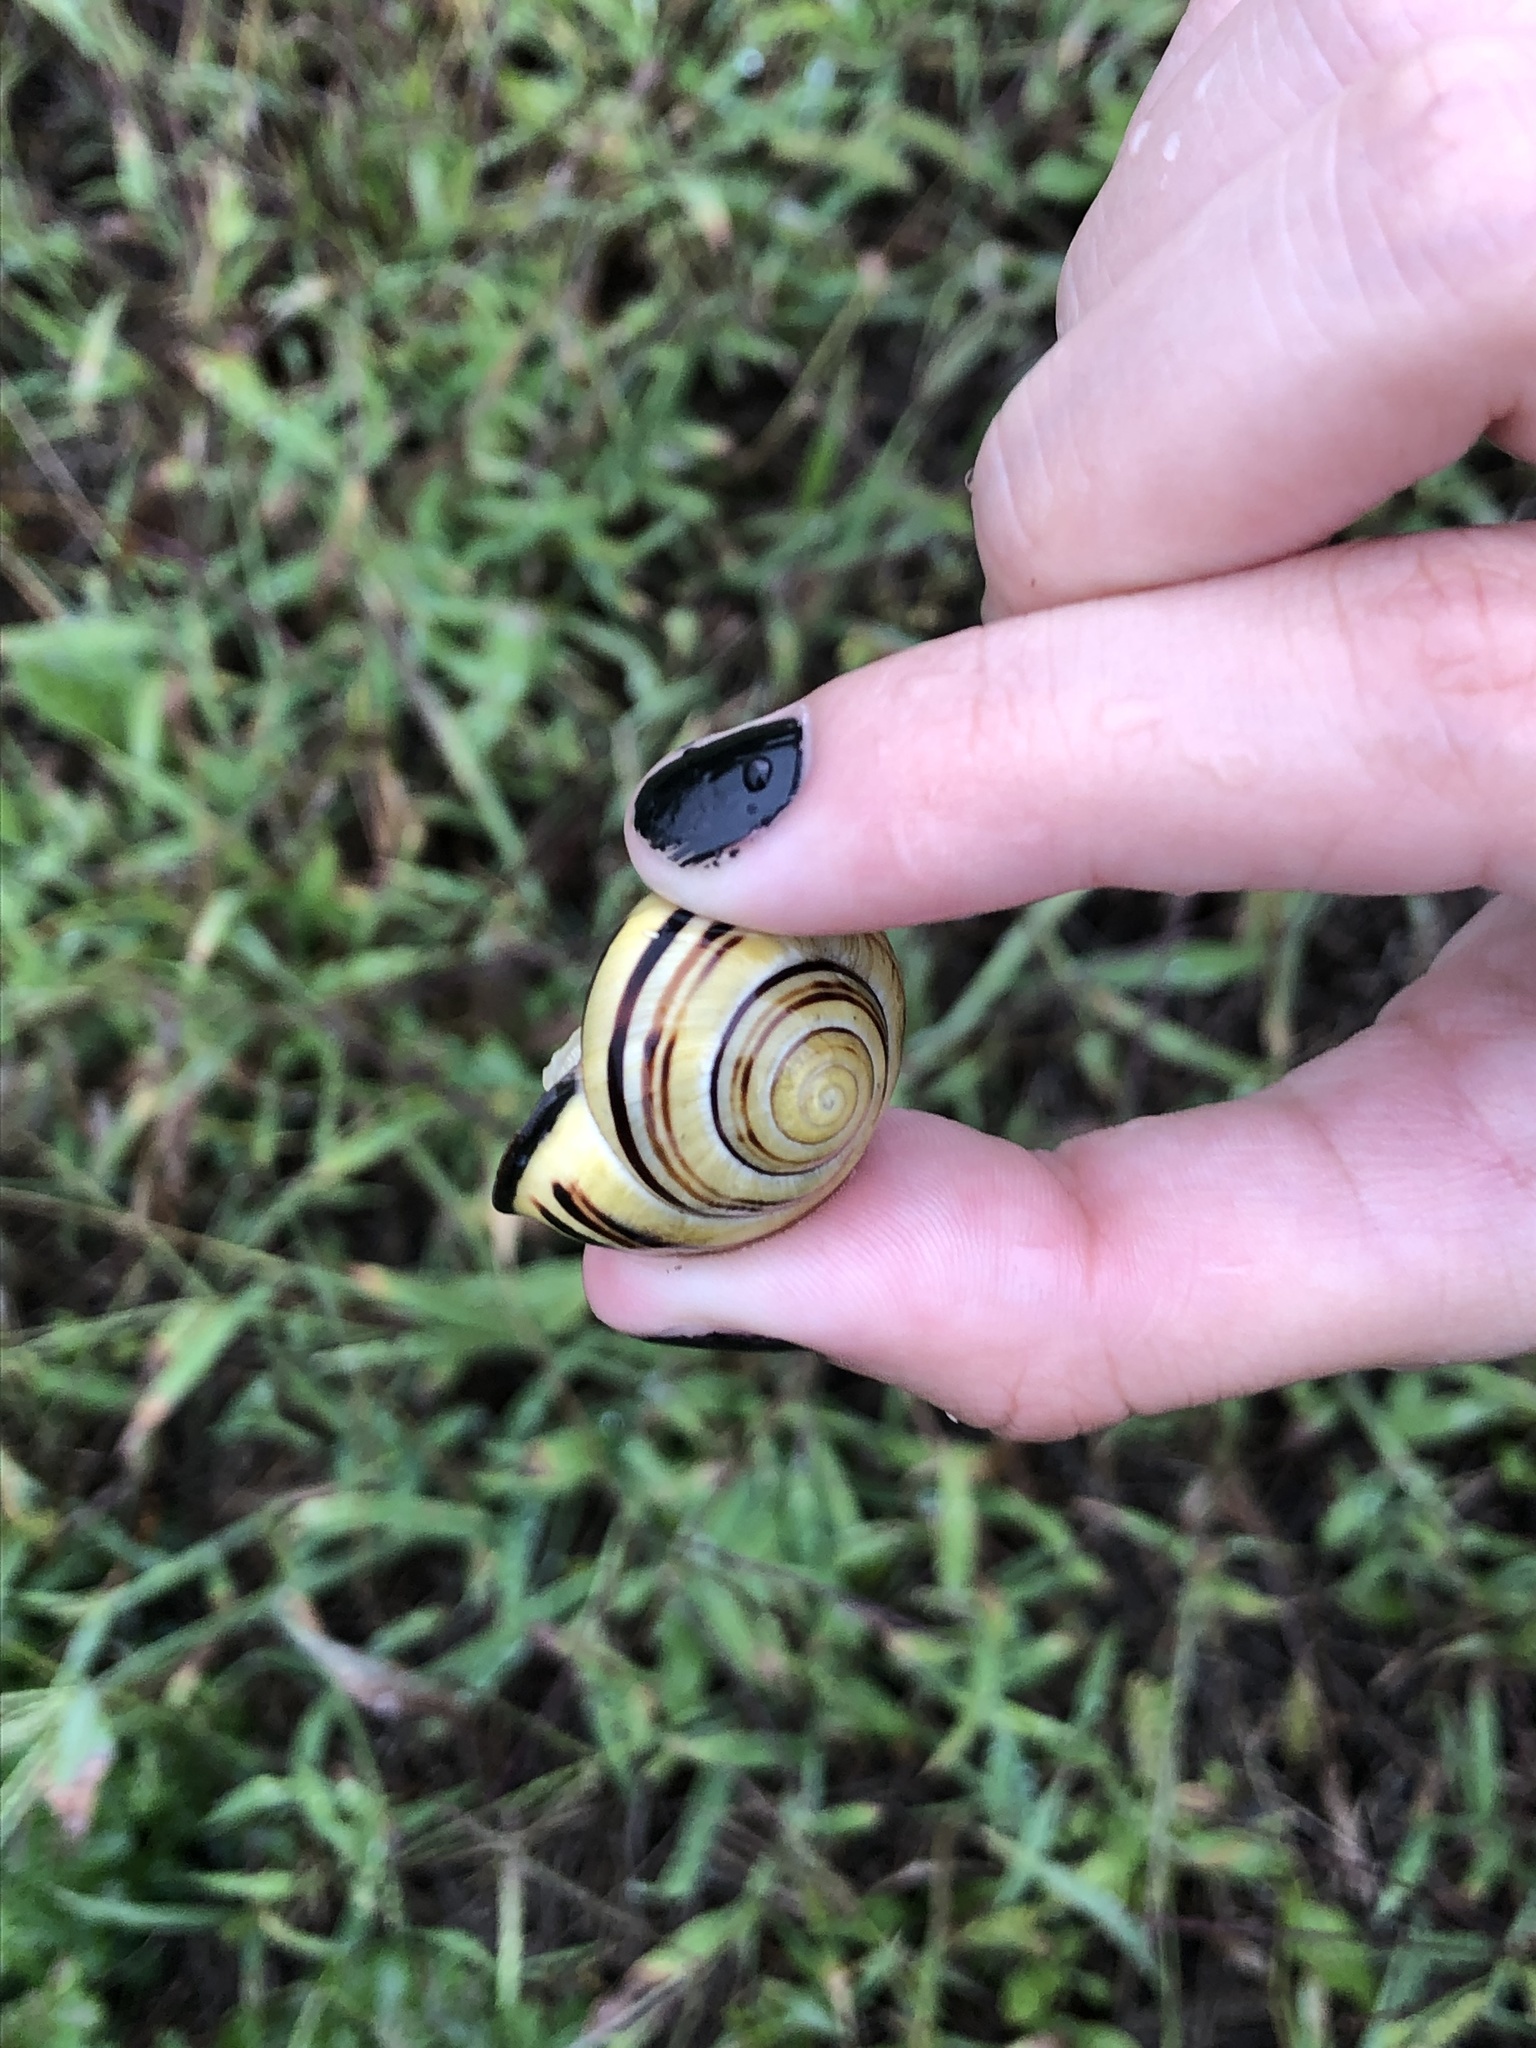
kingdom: Animalia
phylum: Mollusca
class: Gastropoda
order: Stylommatophora
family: Helicidae
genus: Cepaea
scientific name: Cepaea nemoralis
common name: Grovesnail
